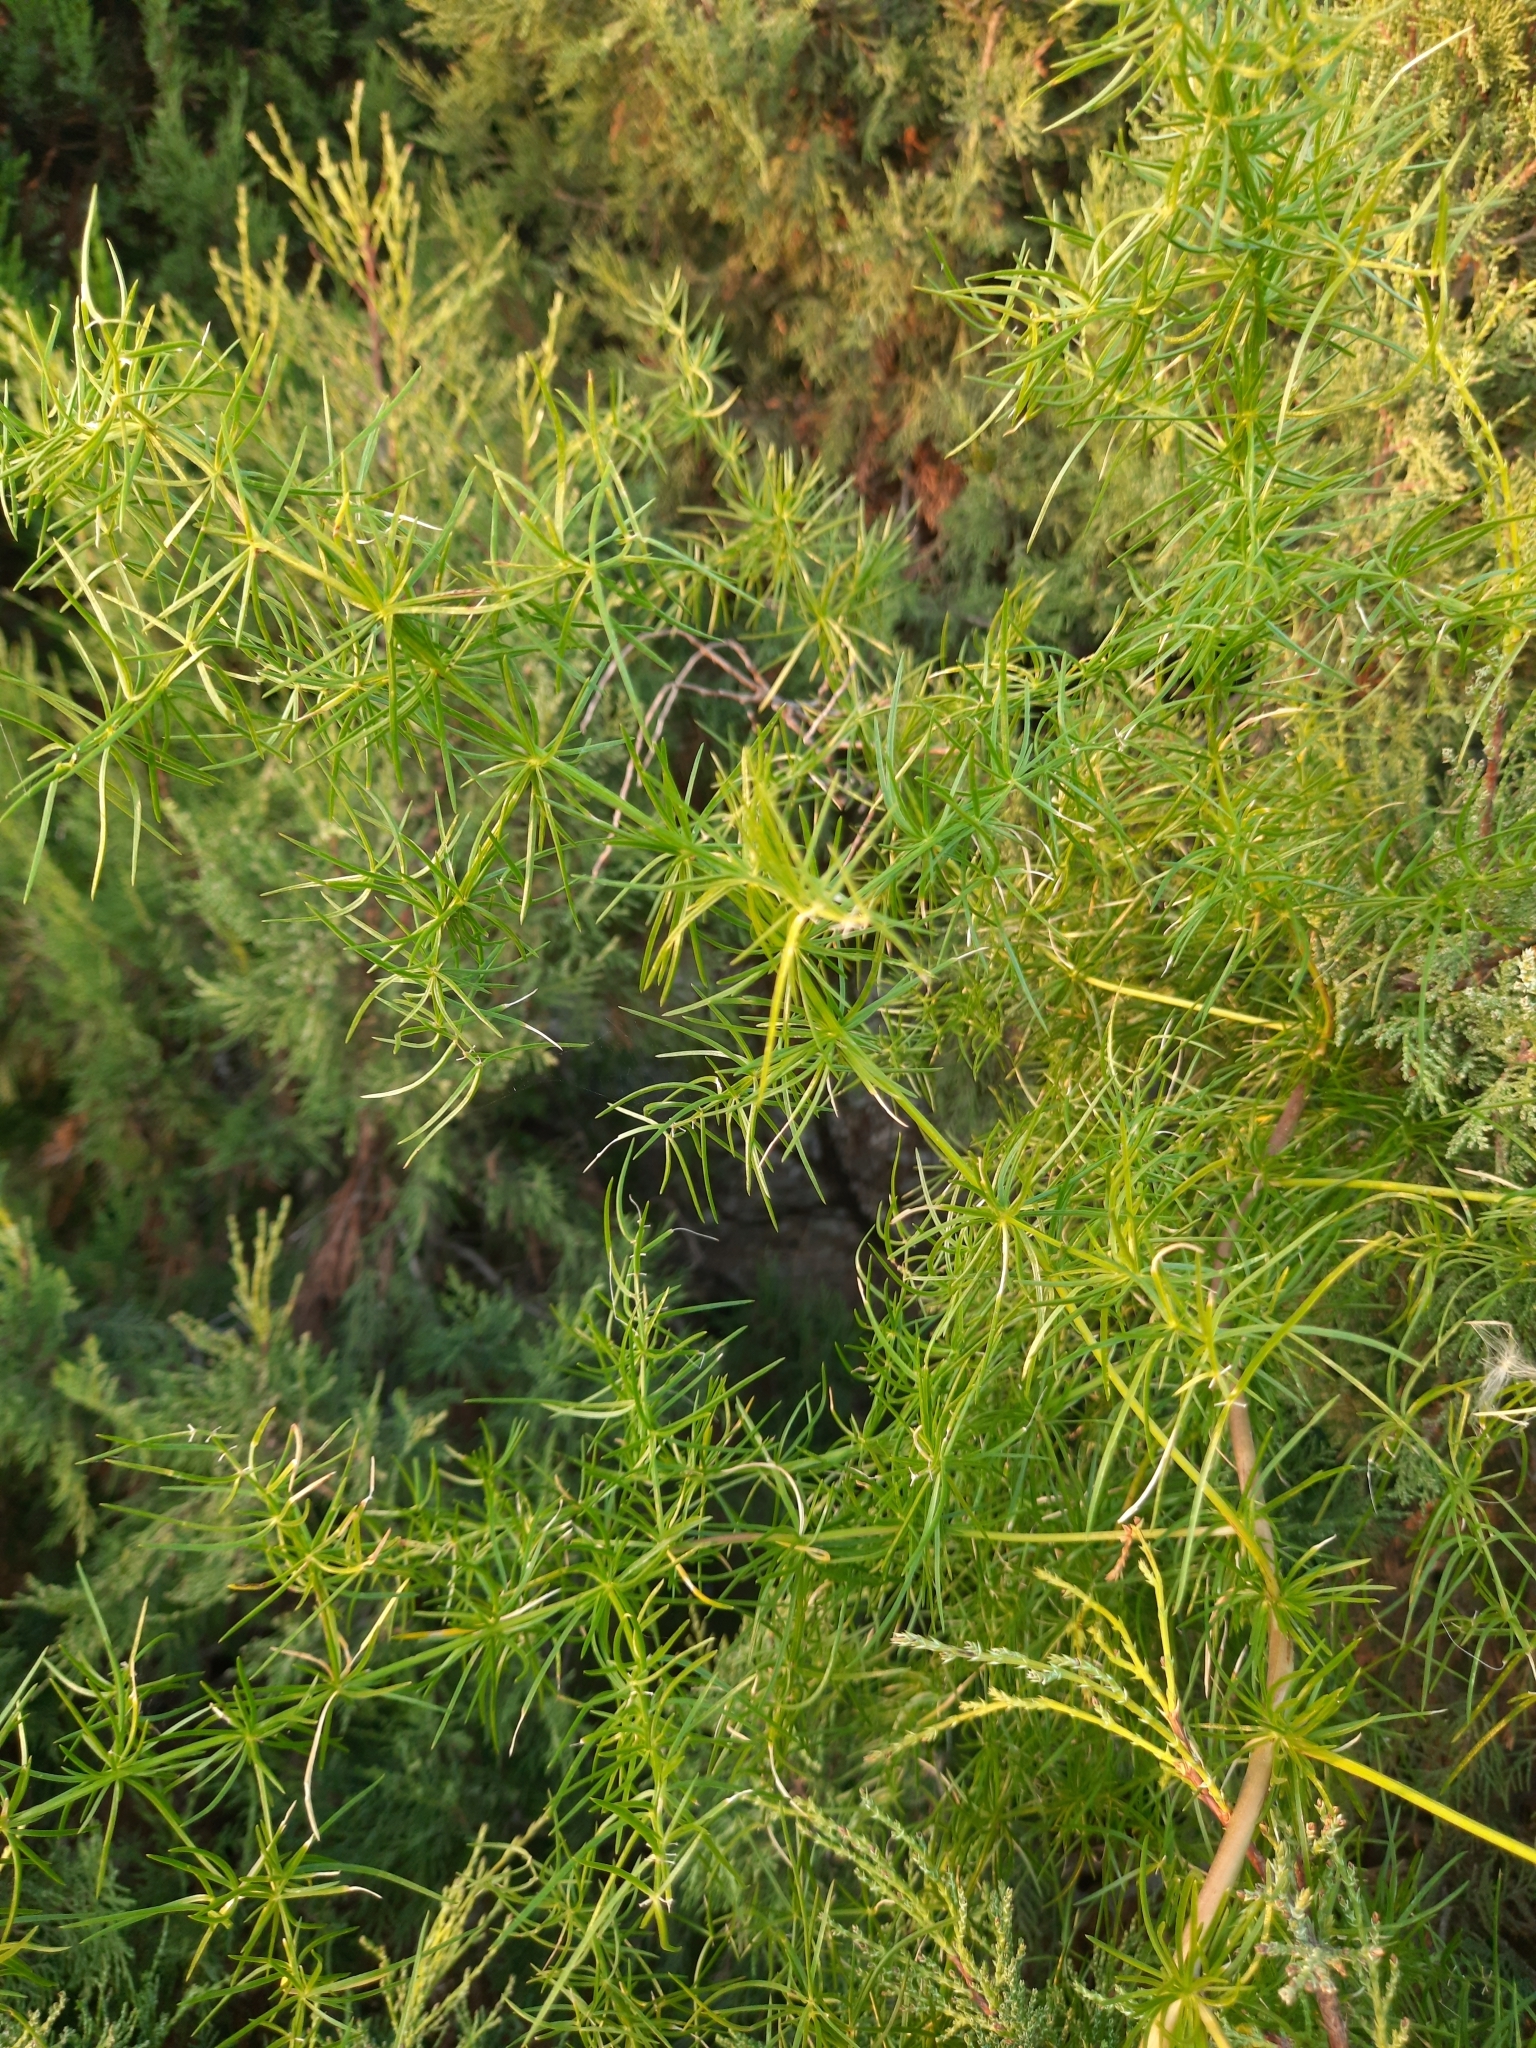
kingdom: Plantae
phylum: Tracheophyta
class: Liliopsida
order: Asparagales
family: Asparagaceae
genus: Asparagus
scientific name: Asparagus verticillatus
